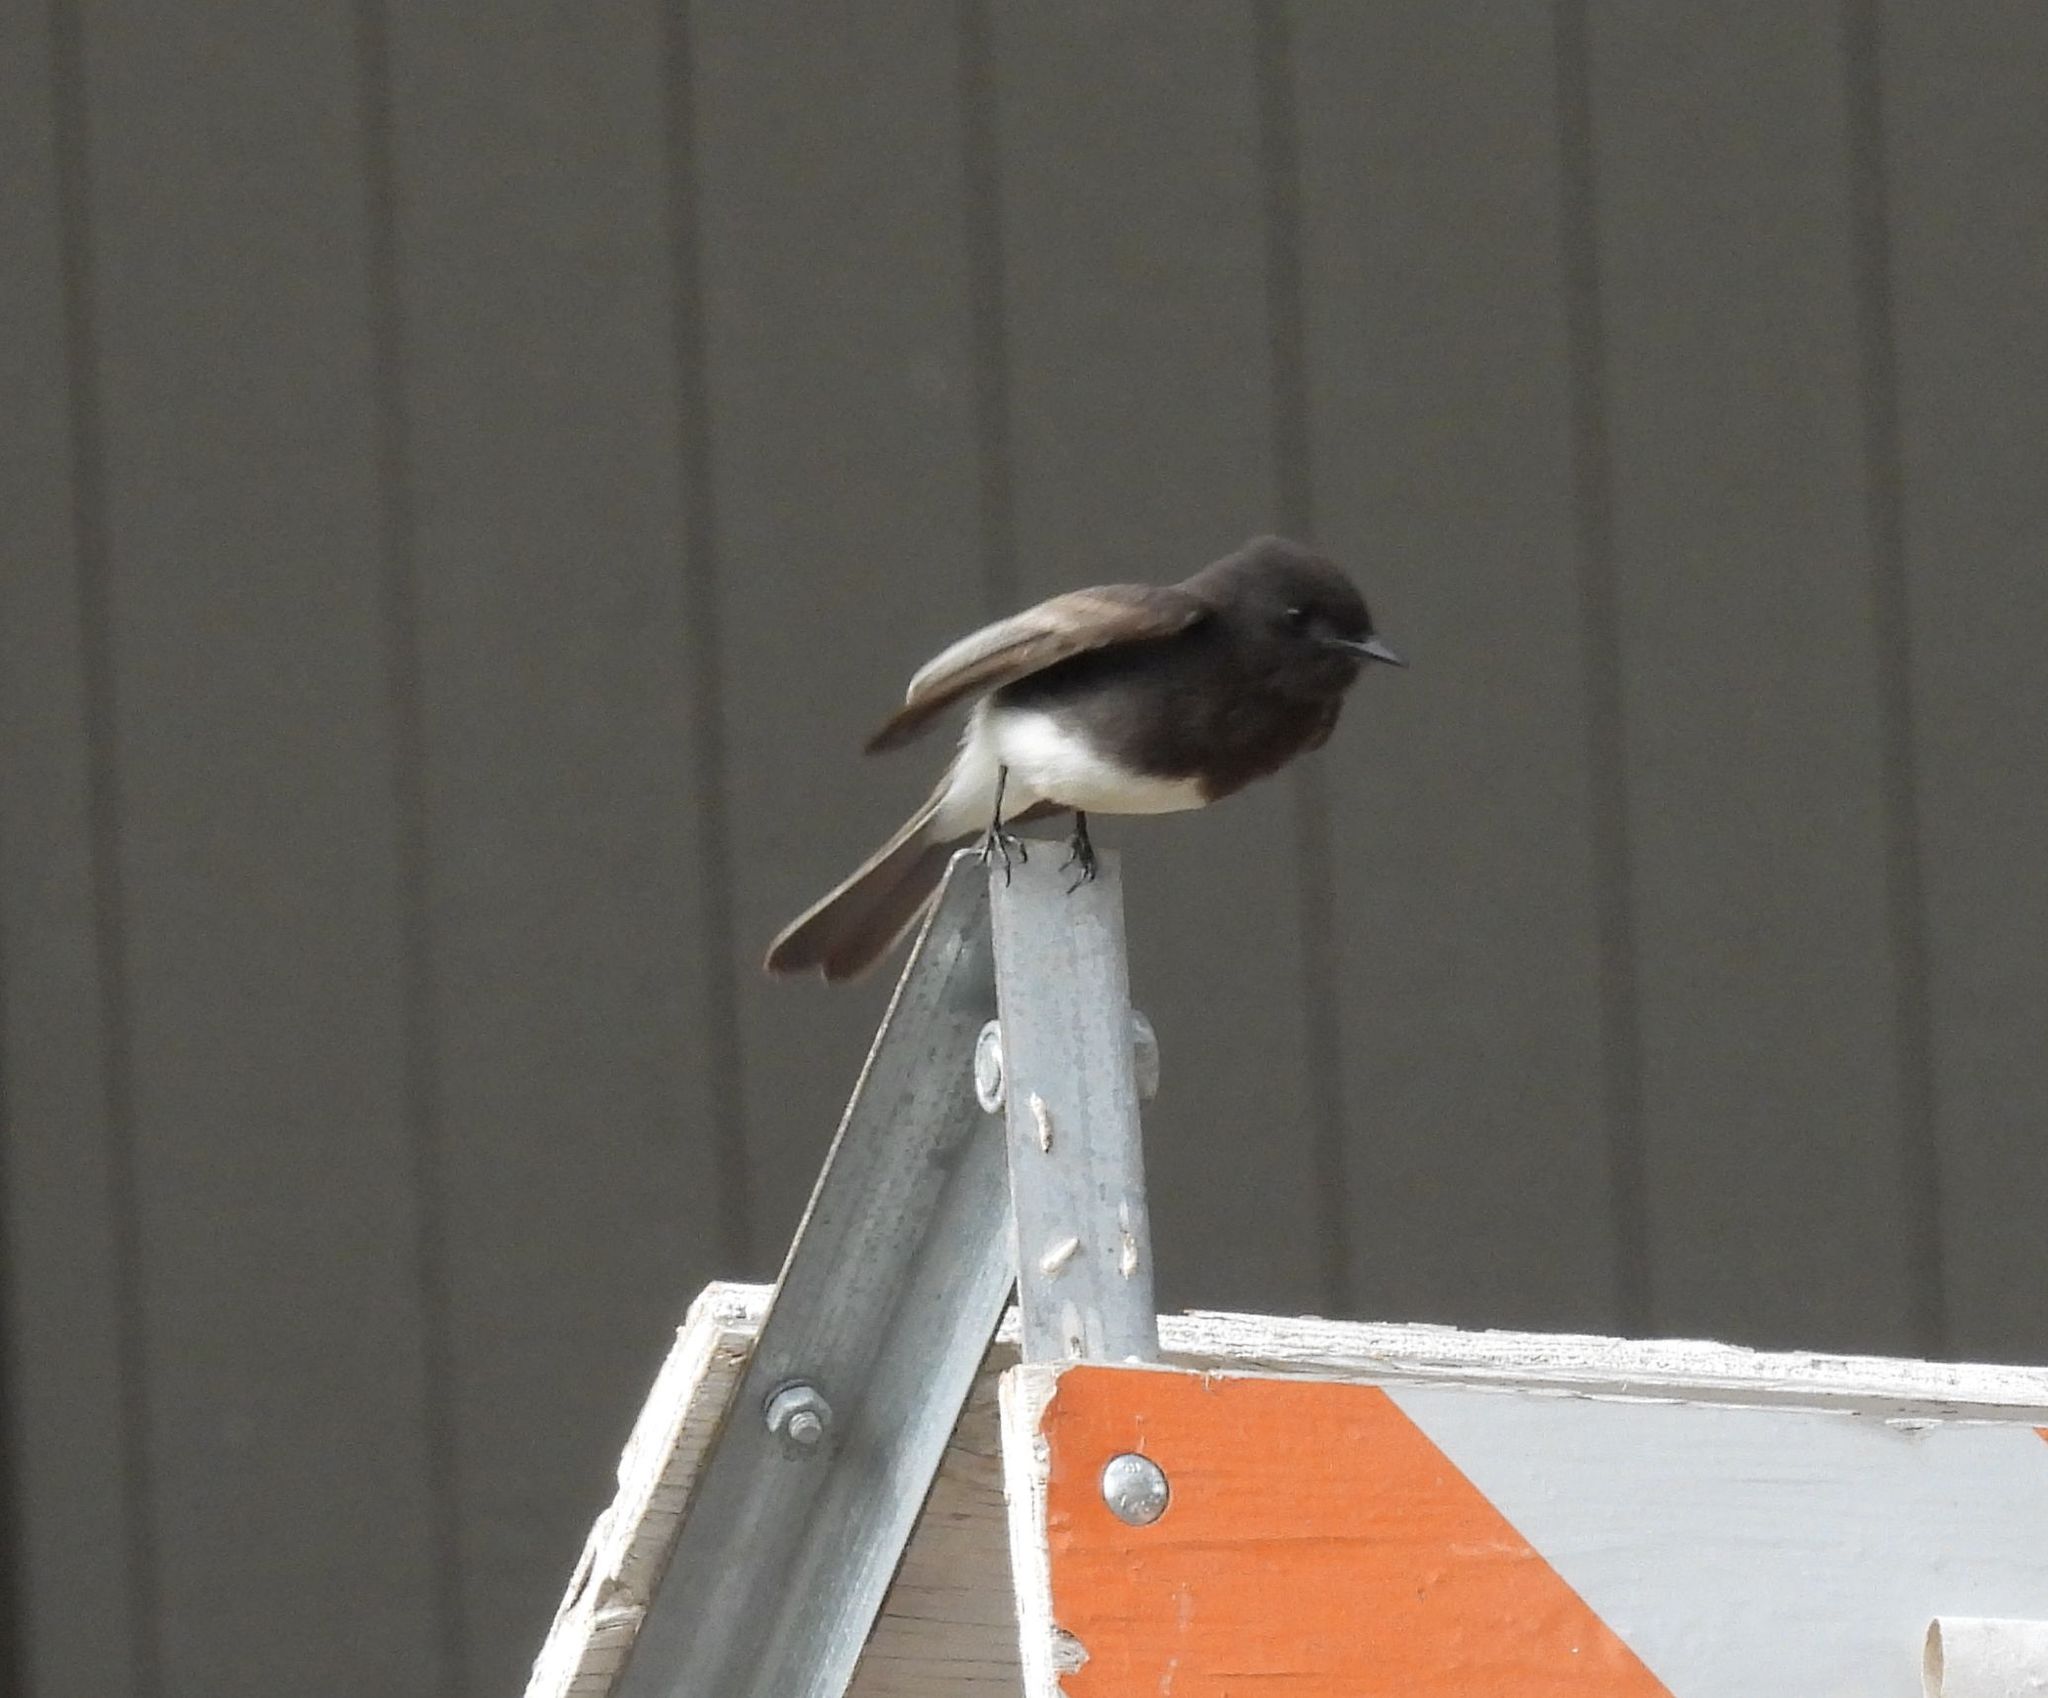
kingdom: Animalia
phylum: Chordata
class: Aves
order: Passeriformes
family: Tyrannidae
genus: Sayornis
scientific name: Sayornis nigricans
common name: Black phoebe
